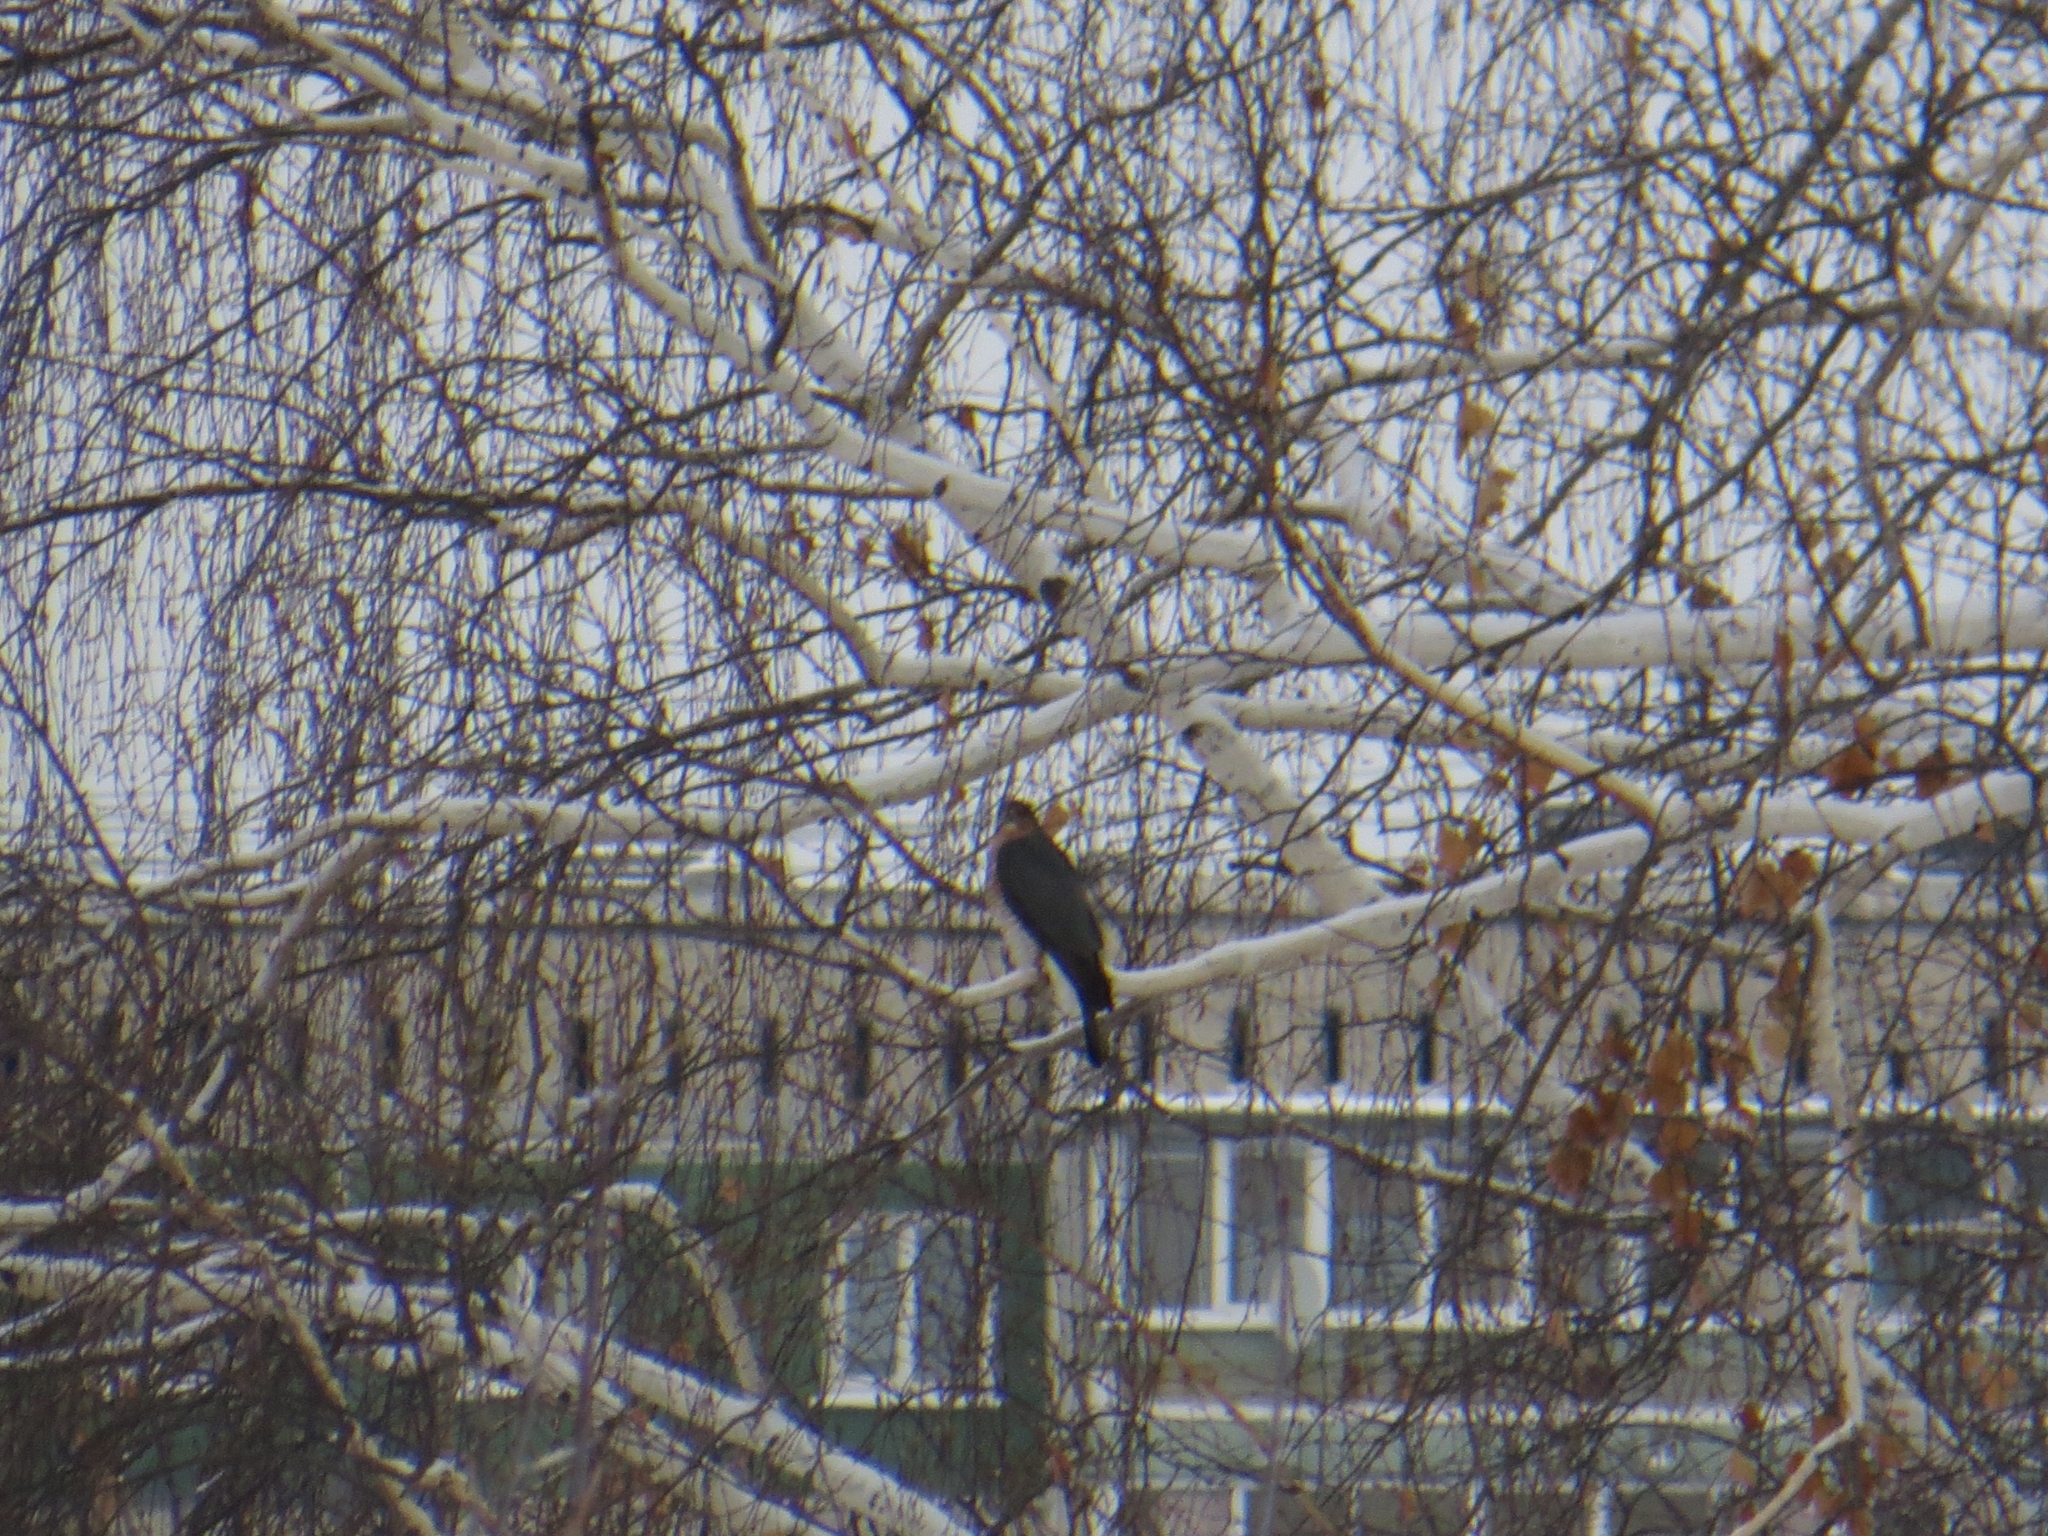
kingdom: Animalia
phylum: Chordata
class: Aves
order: Accipitriformes
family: Accipitridae
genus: Accipiter
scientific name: Accipiter nisus
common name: Eurasian sparrowhawk
